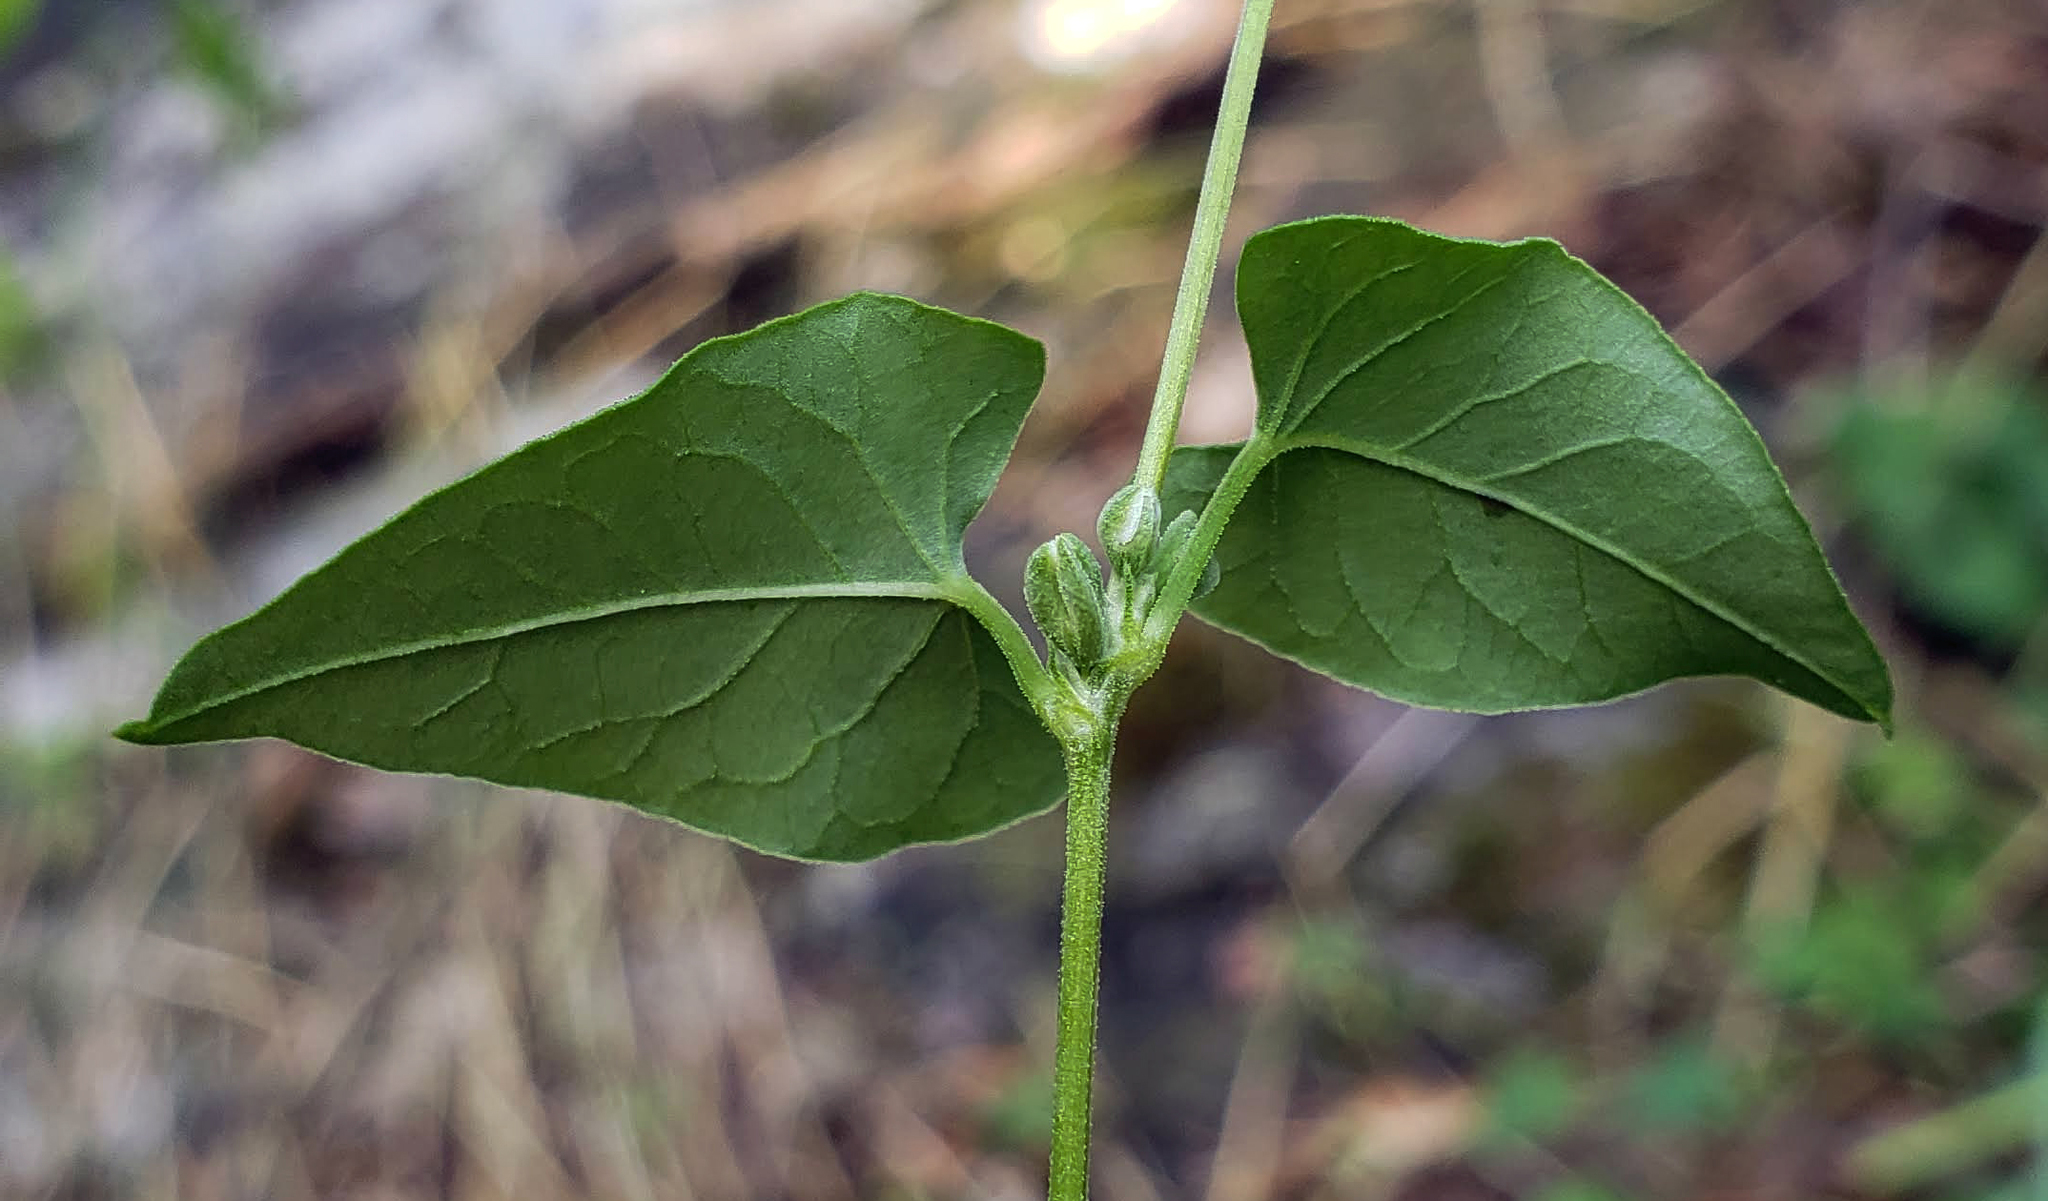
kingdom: Plantae
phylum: Tracheophyta
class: Magnoliopsida
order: Caryophyllales
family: Polygonaceae
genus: Fallopia
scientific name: Fallopia convolvulus
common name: Black bindweed
